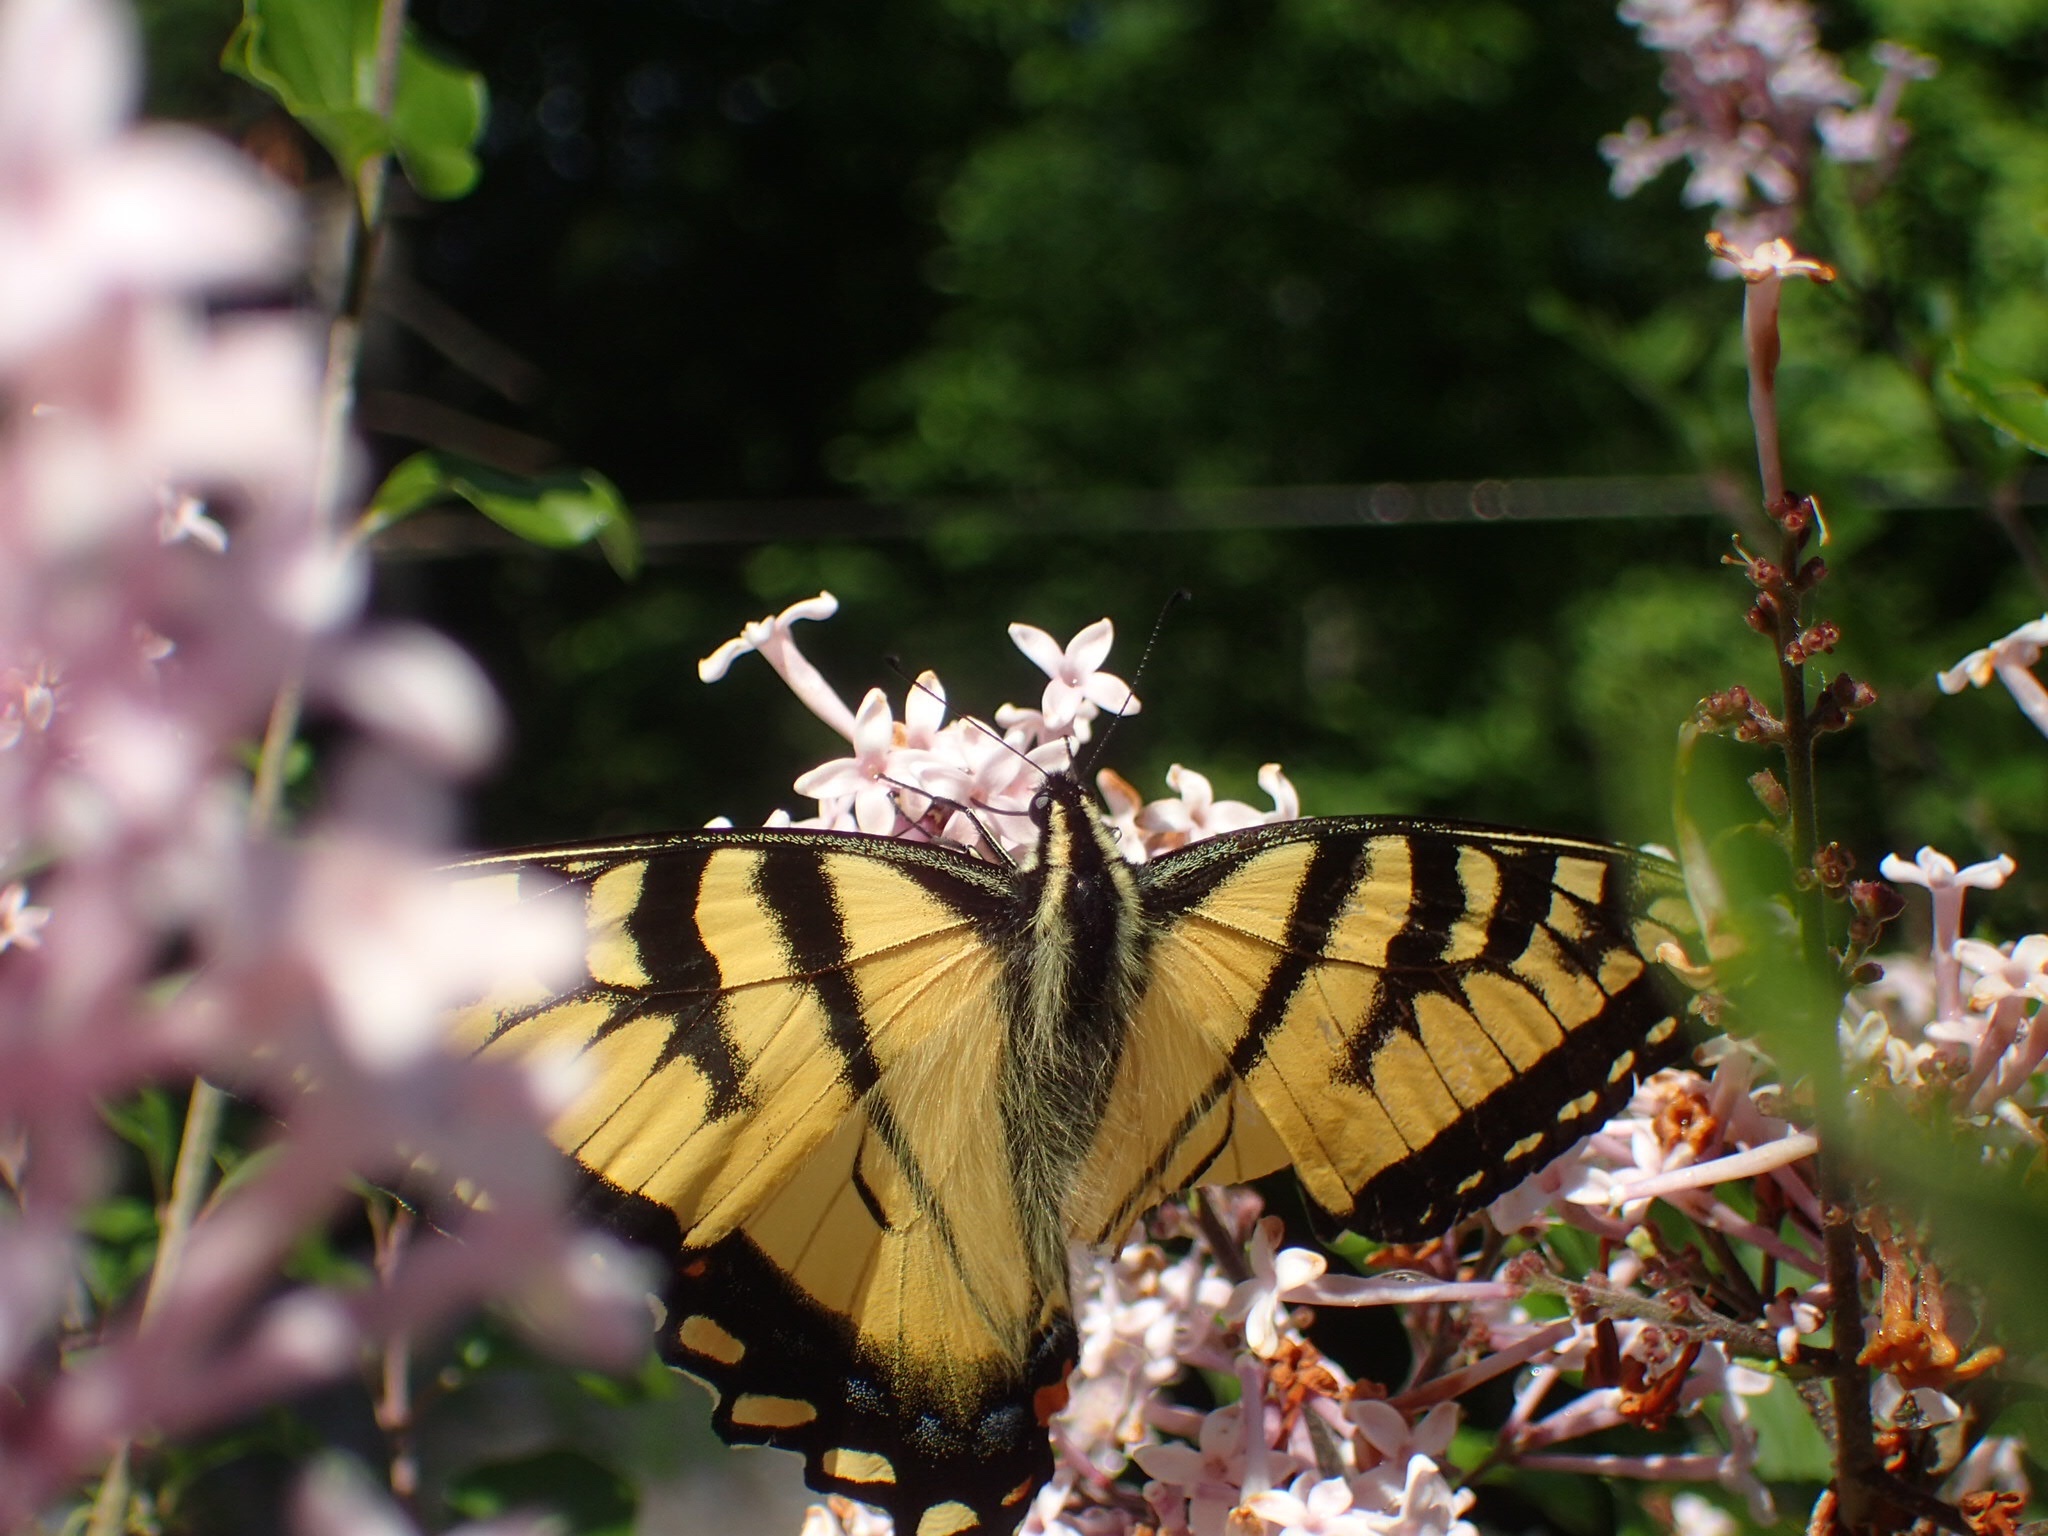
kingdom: Animalia
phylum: Arthropoda
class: Insecta
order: Lepidoptera
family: Papilionidae
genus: Papilio
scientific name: Papilio canadensis
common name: Canadian tiger swallowtail
